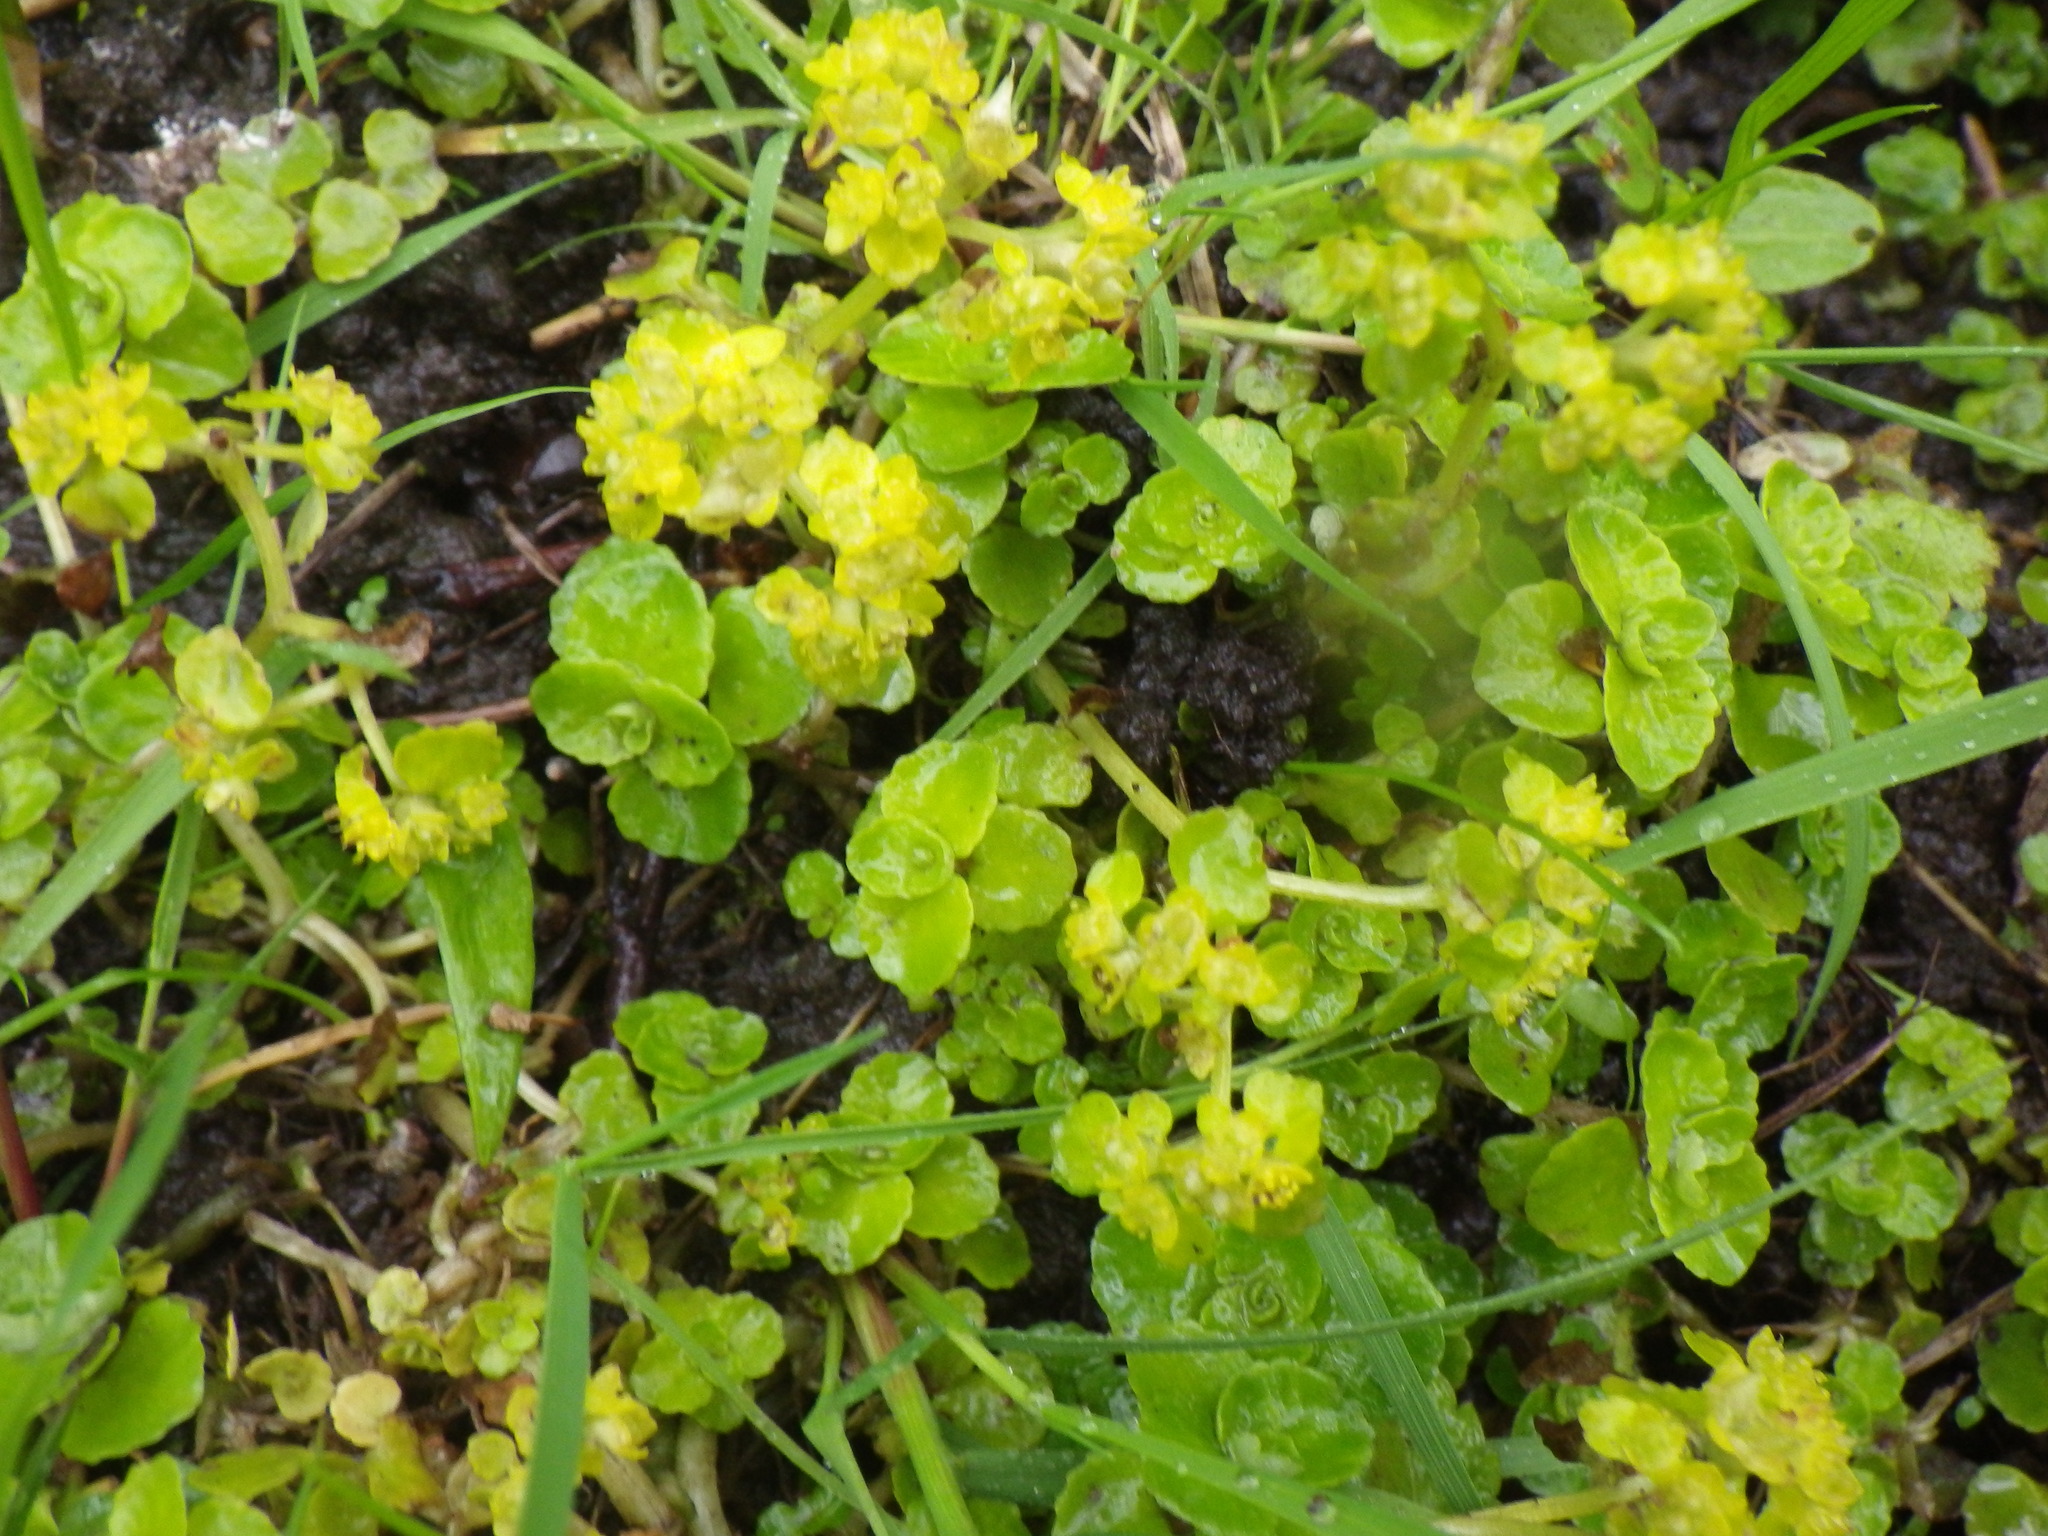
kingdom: Plantae
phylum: Tracheophyta
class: Magnoliopsida
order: Saxifragales
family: Saxifragaceae
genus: Chrysosplenium
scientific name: Chrysosplenium oppositifolium
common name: Opposite-leaved golden-saxifrage
